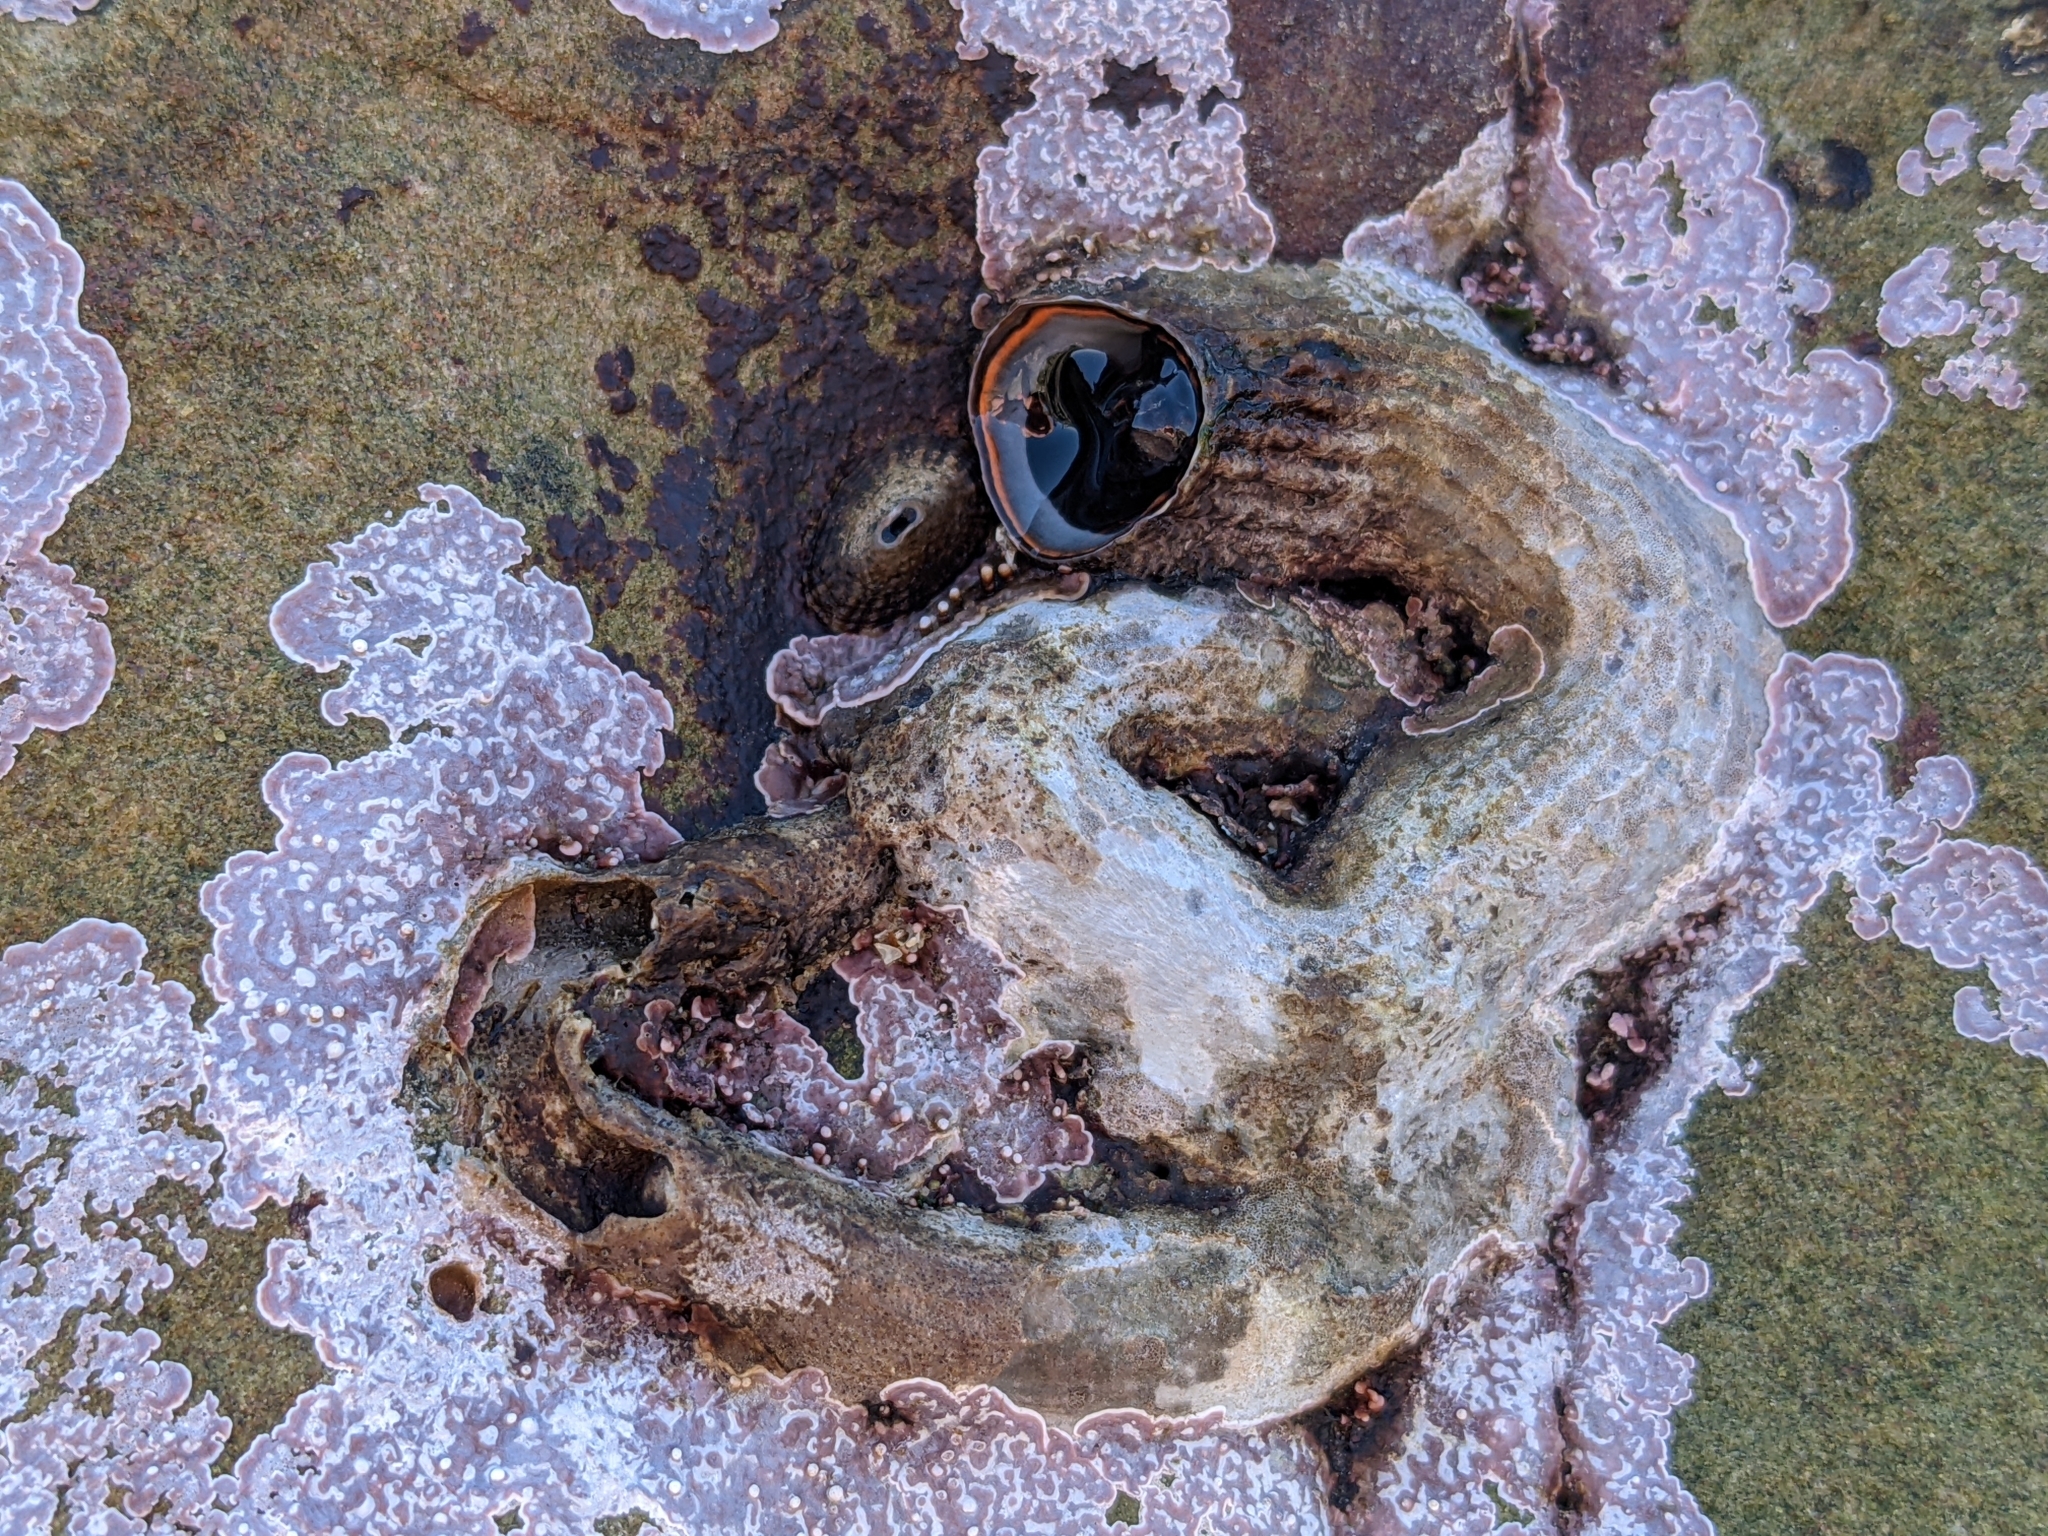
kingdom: Animalia
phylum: Mollusca
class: Gastropoda
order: Littorinimorpha
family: Vermetidae
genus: Thylacodes
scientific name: Thylacodes squamigerus
